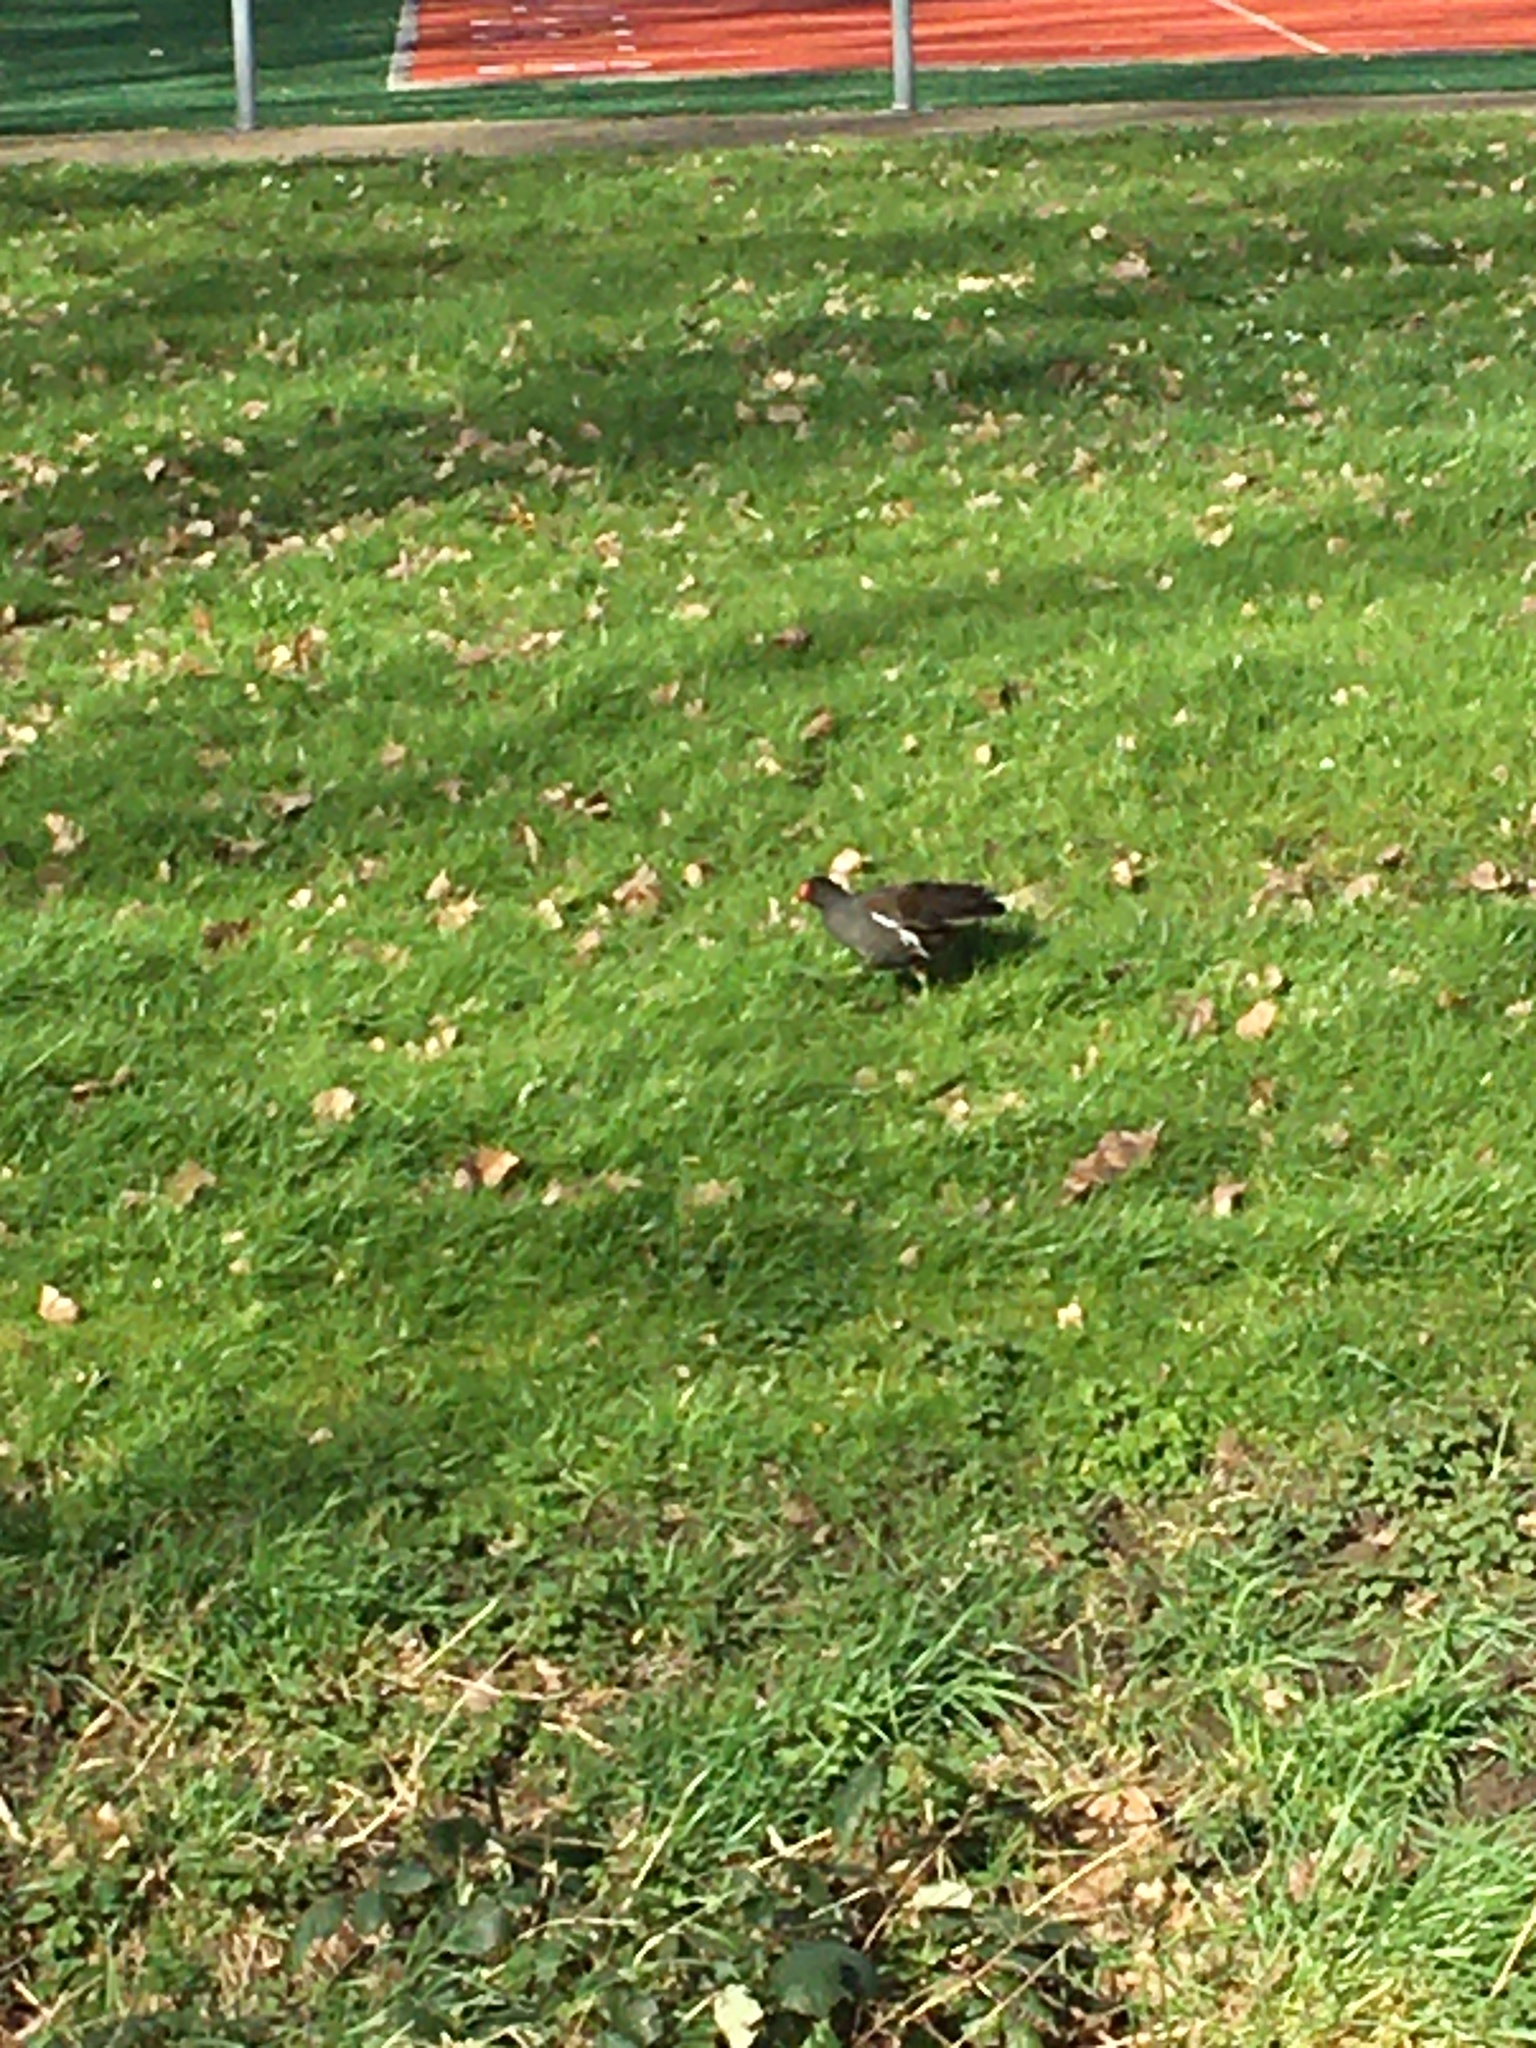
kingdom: Animalia
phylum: Chordata
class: Aves
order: Gruiformes
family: Rallidae
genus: Gallinula
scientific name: Gallinula chloropus
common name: Common moorhen
